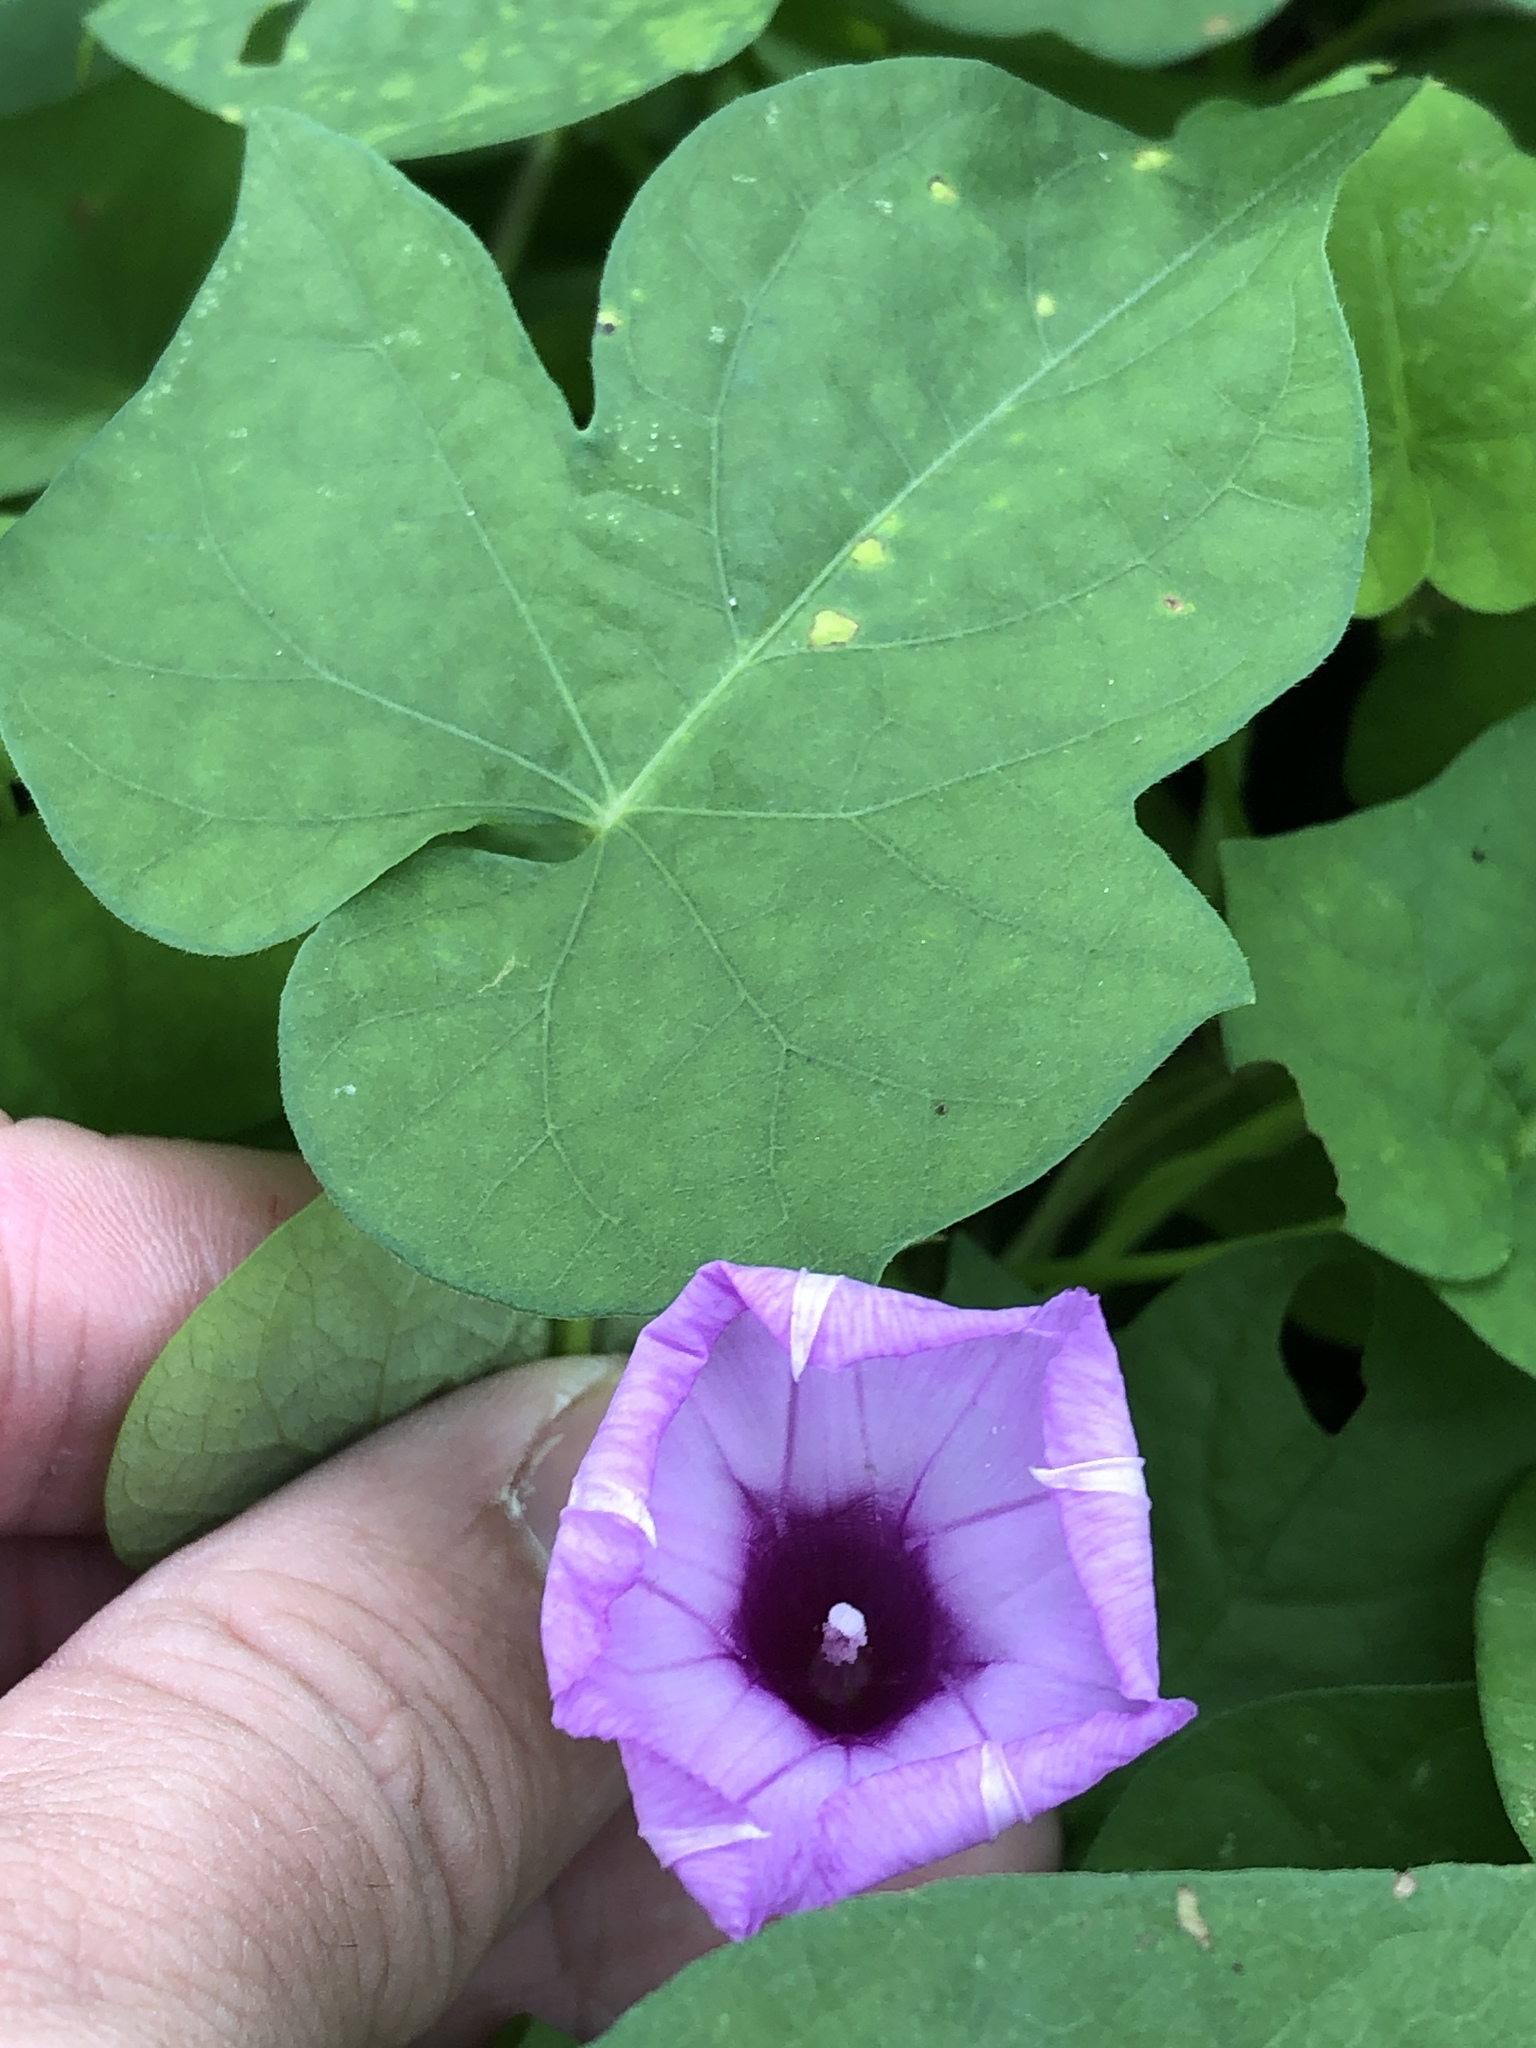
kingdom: Plantae
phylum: Tracheophyta
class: Magnoliopsida
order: Solanales
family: Convolvulaceae
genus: Ipomoea
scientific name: Ipomoea cordatotriloba
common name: Cotton morning glory
